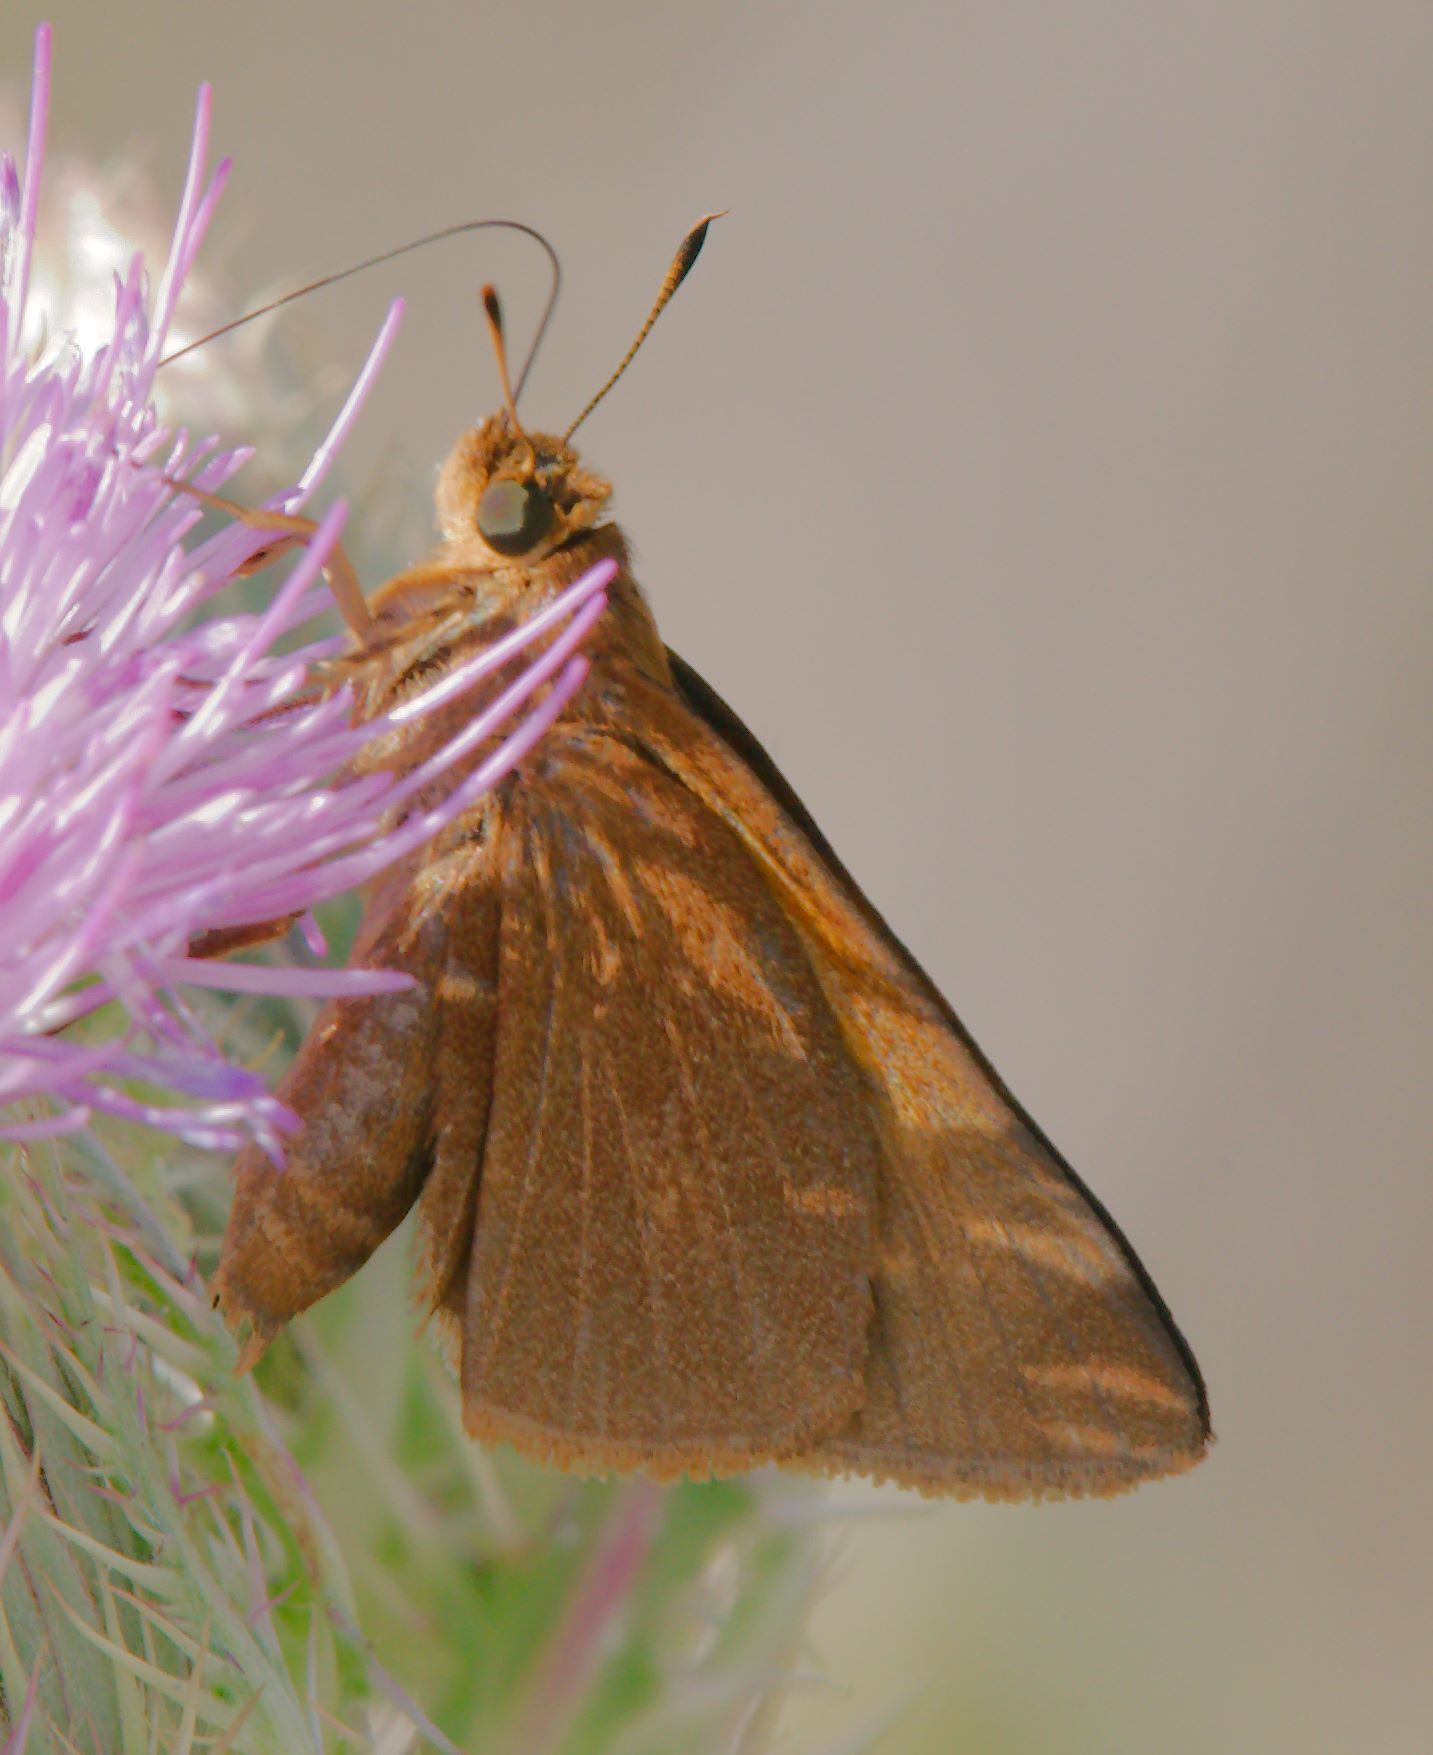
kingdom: Animalia
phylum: Arthropoda
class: Insecta
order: Lepidoptera
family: Hesperiidae
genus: Euphyes
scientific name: Euphyes pilatka
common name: Palatka skipper
